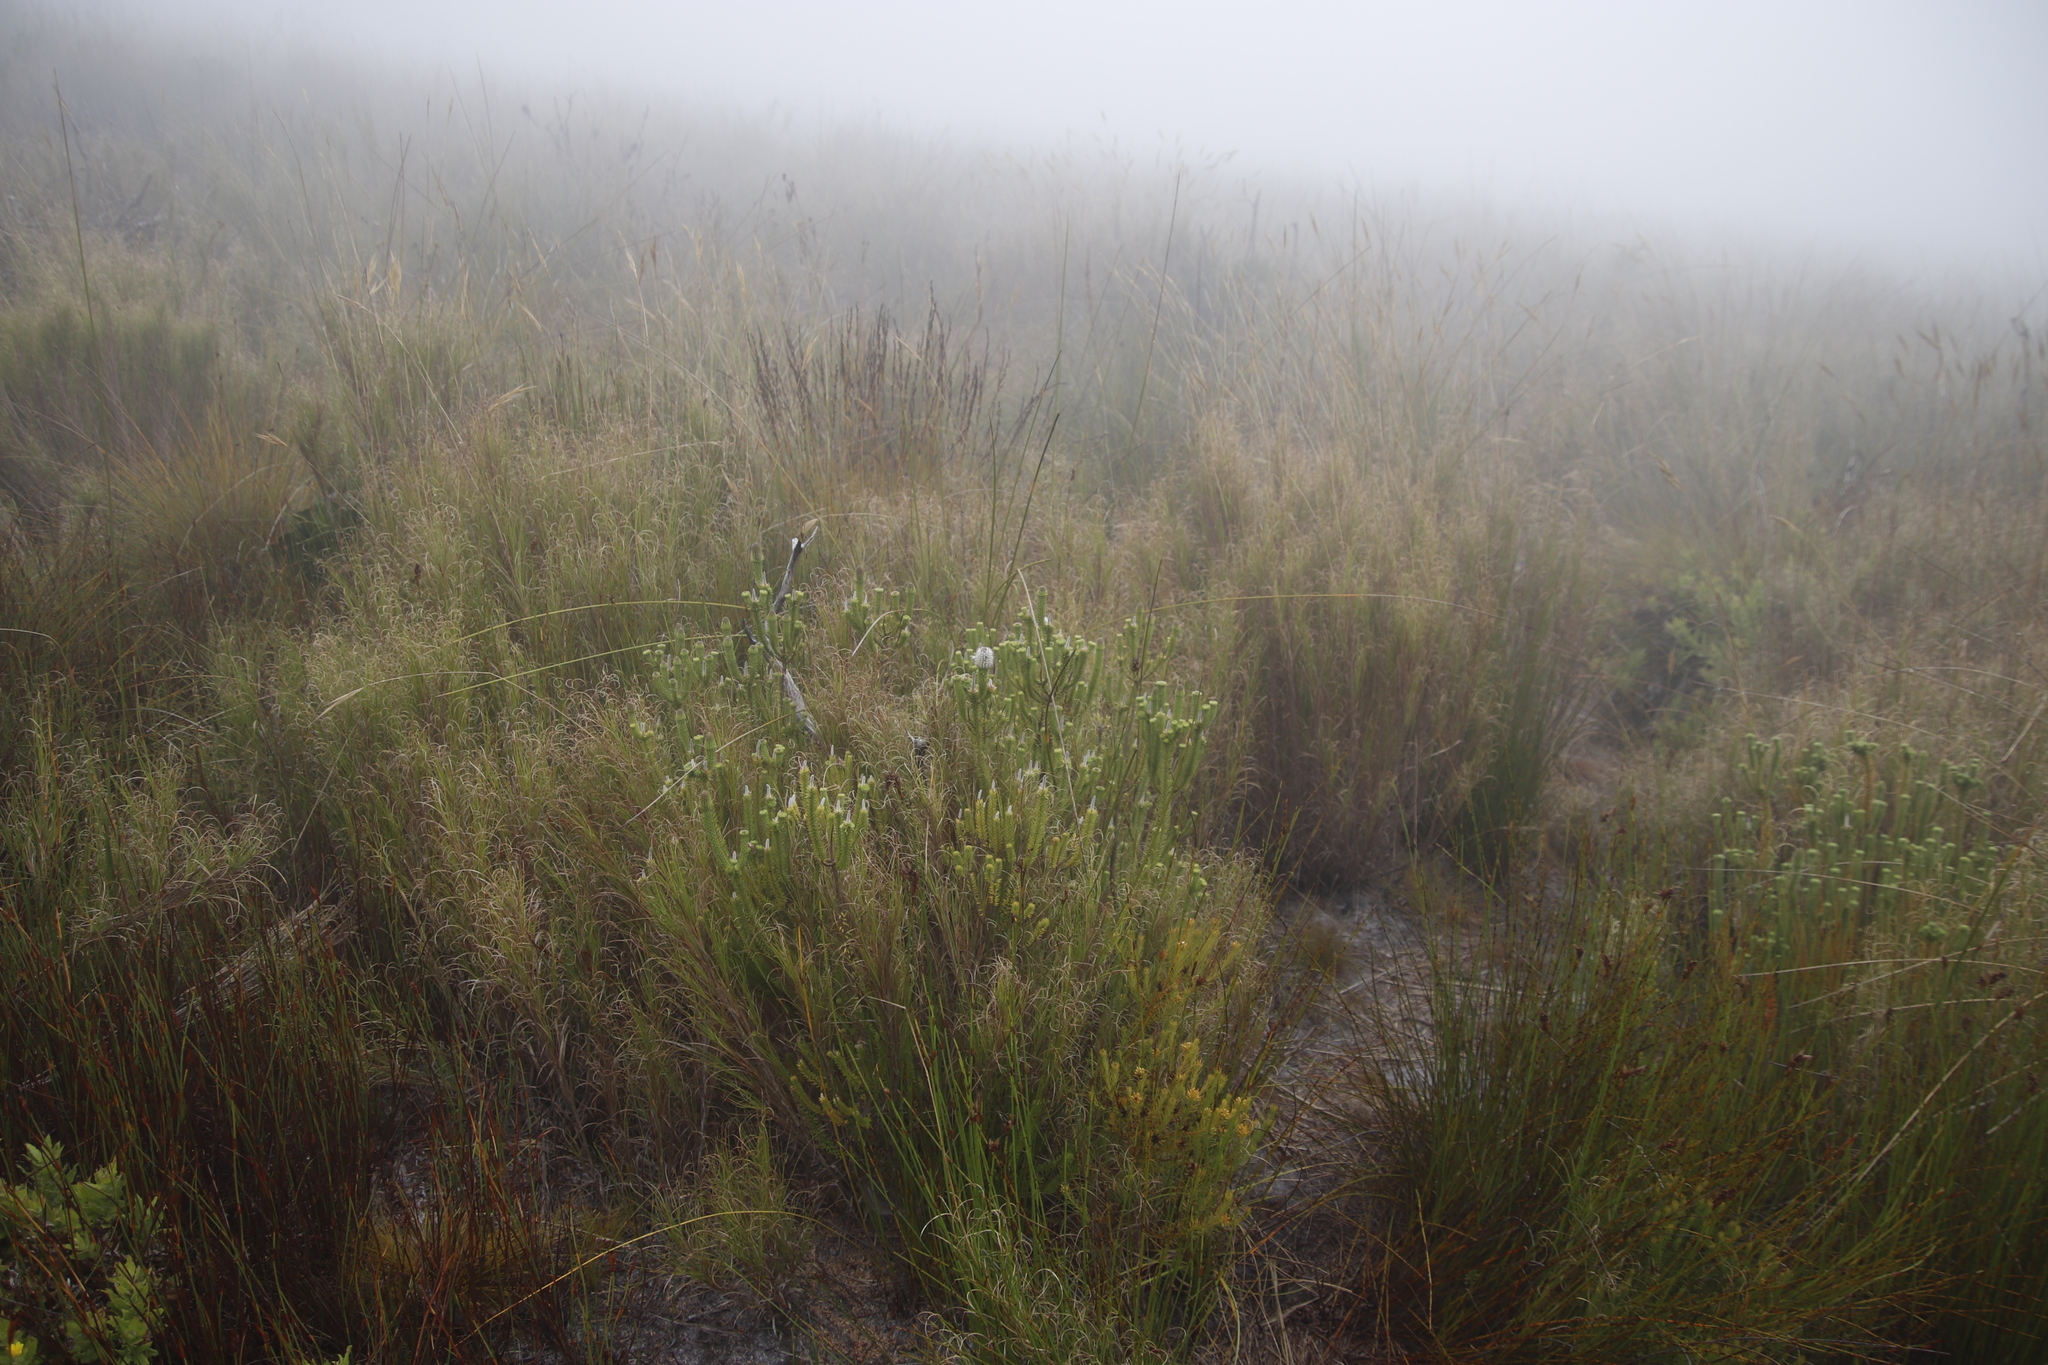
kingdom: Plantae
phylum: Tracheophyta
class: Magnoliopsida
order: Lamiales
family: Stilbaceae
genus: Stilbe
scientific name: Stilbe vestita
